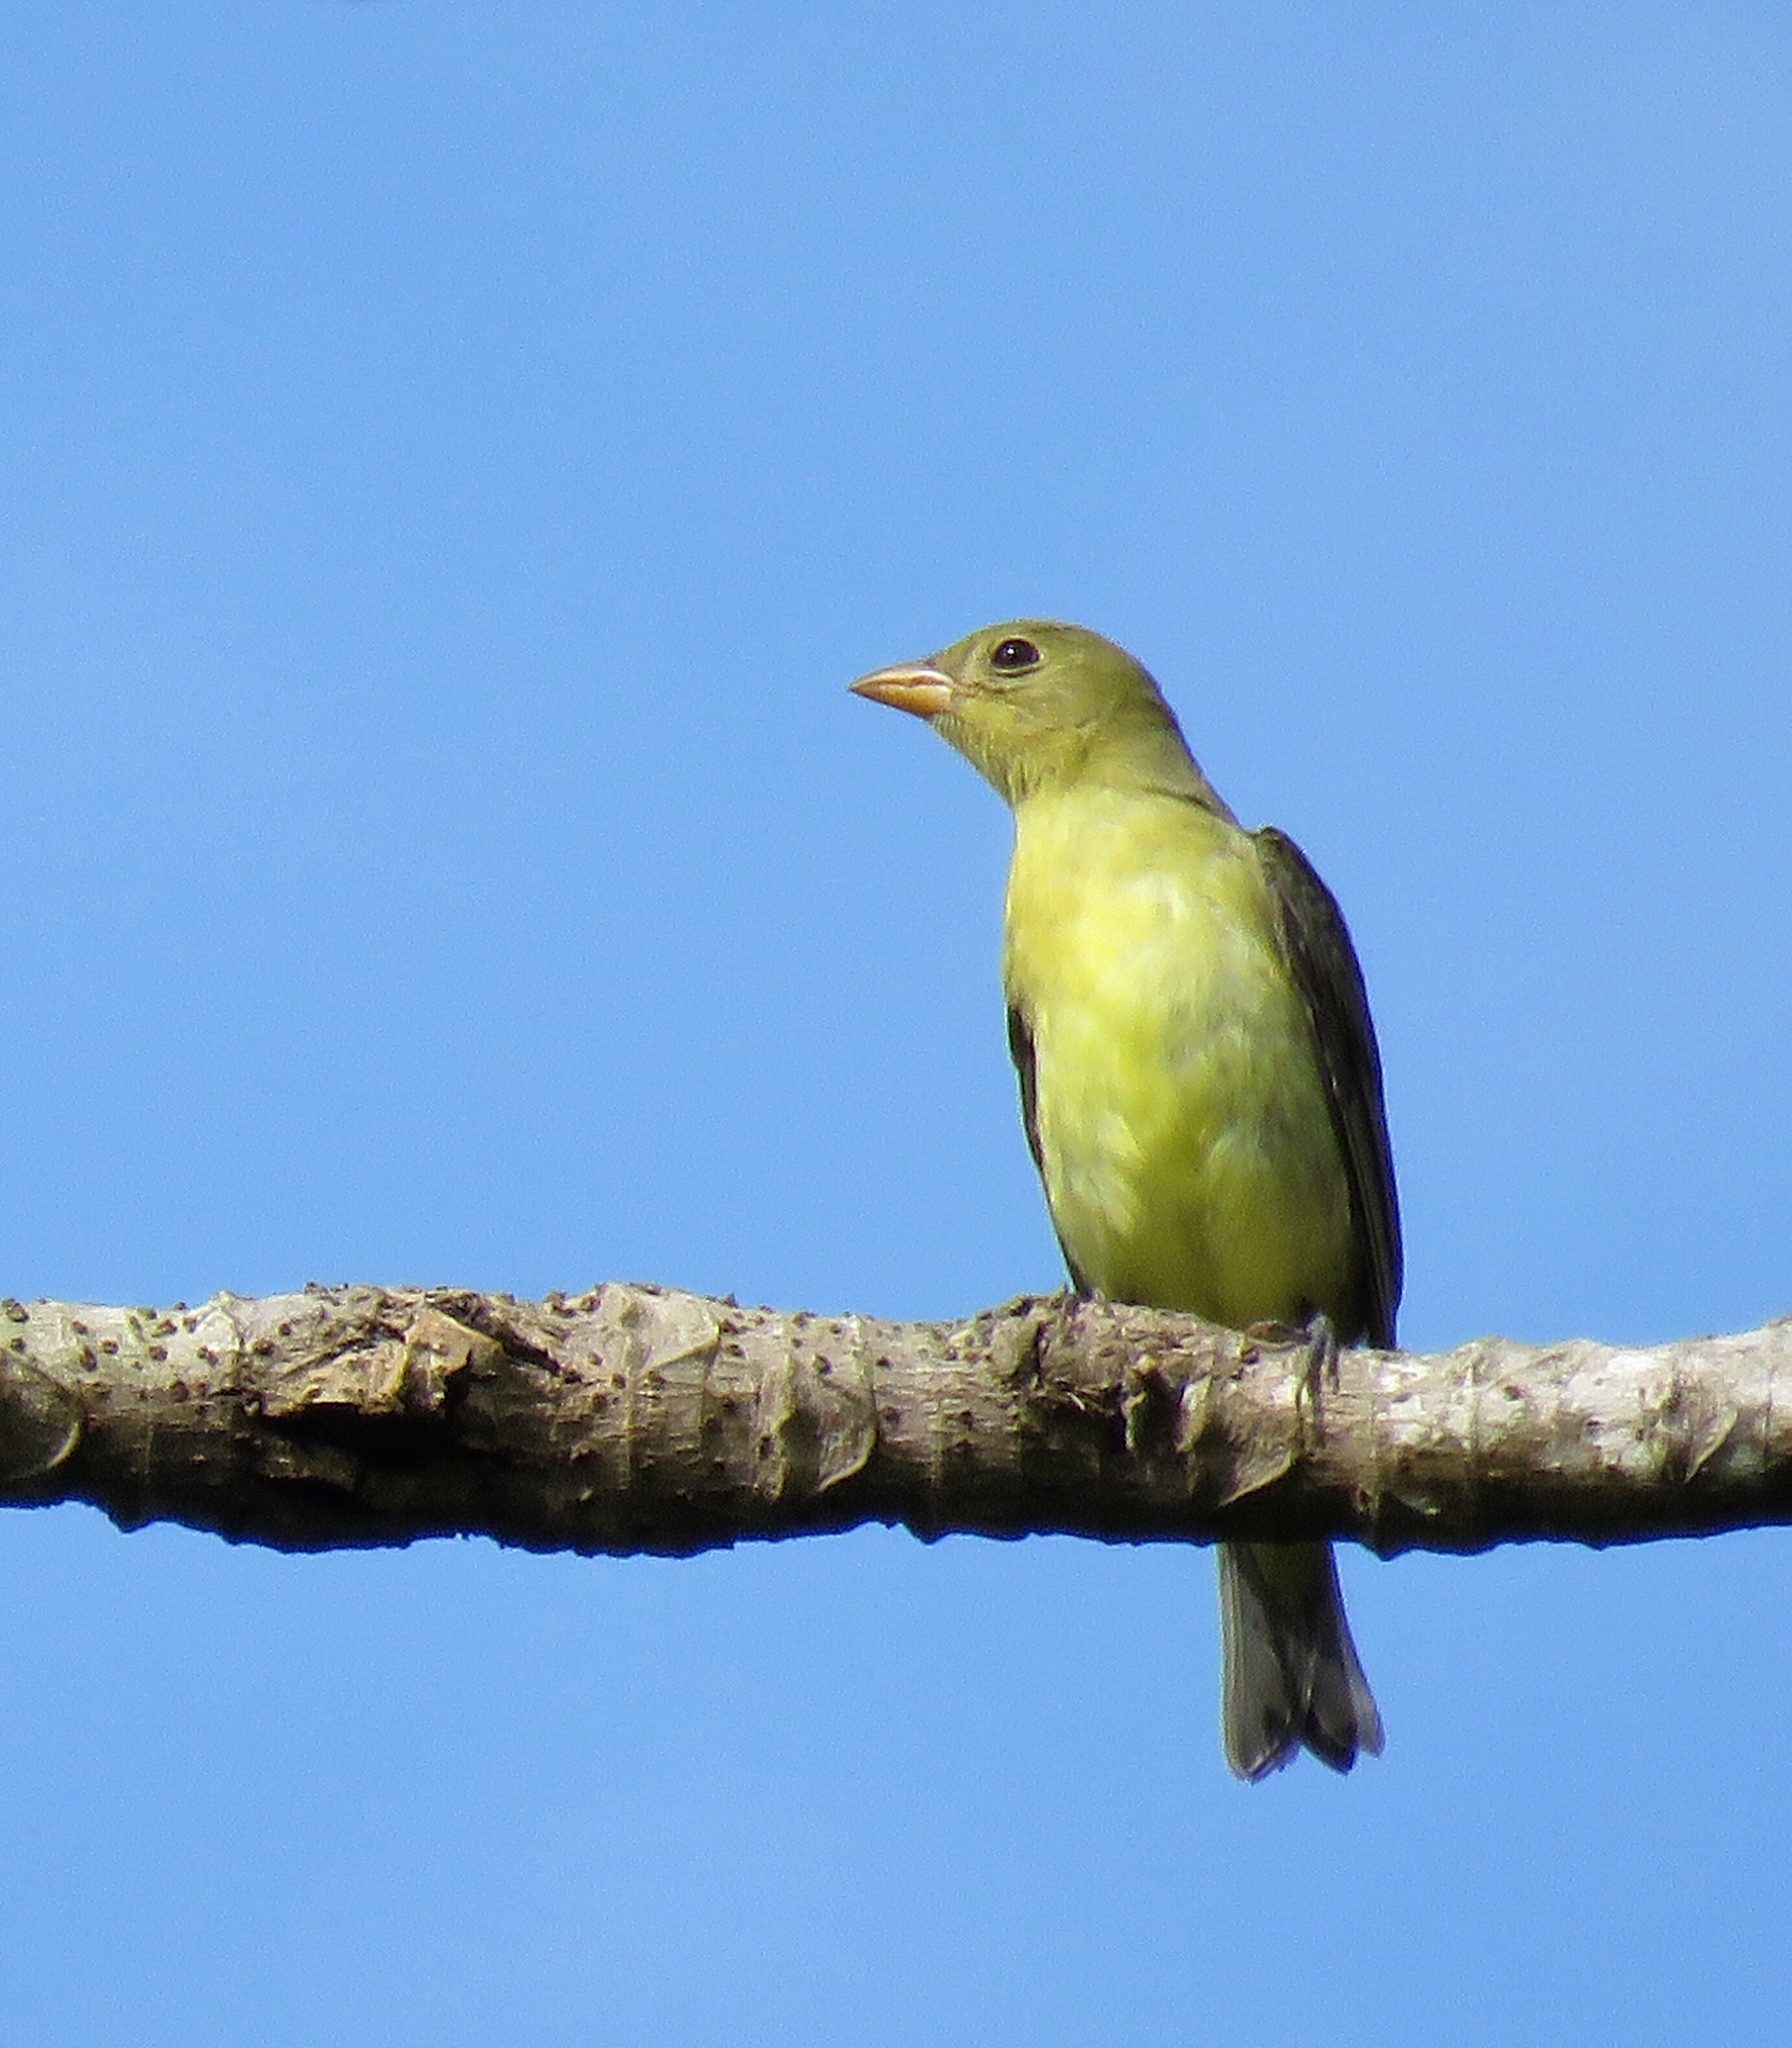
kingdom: Animalia
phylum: Chordata
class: Aves
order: Passeriformes
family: Cardinalidae
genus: Piranga
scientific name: Piranga olivacea
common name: Scarlet tanager
